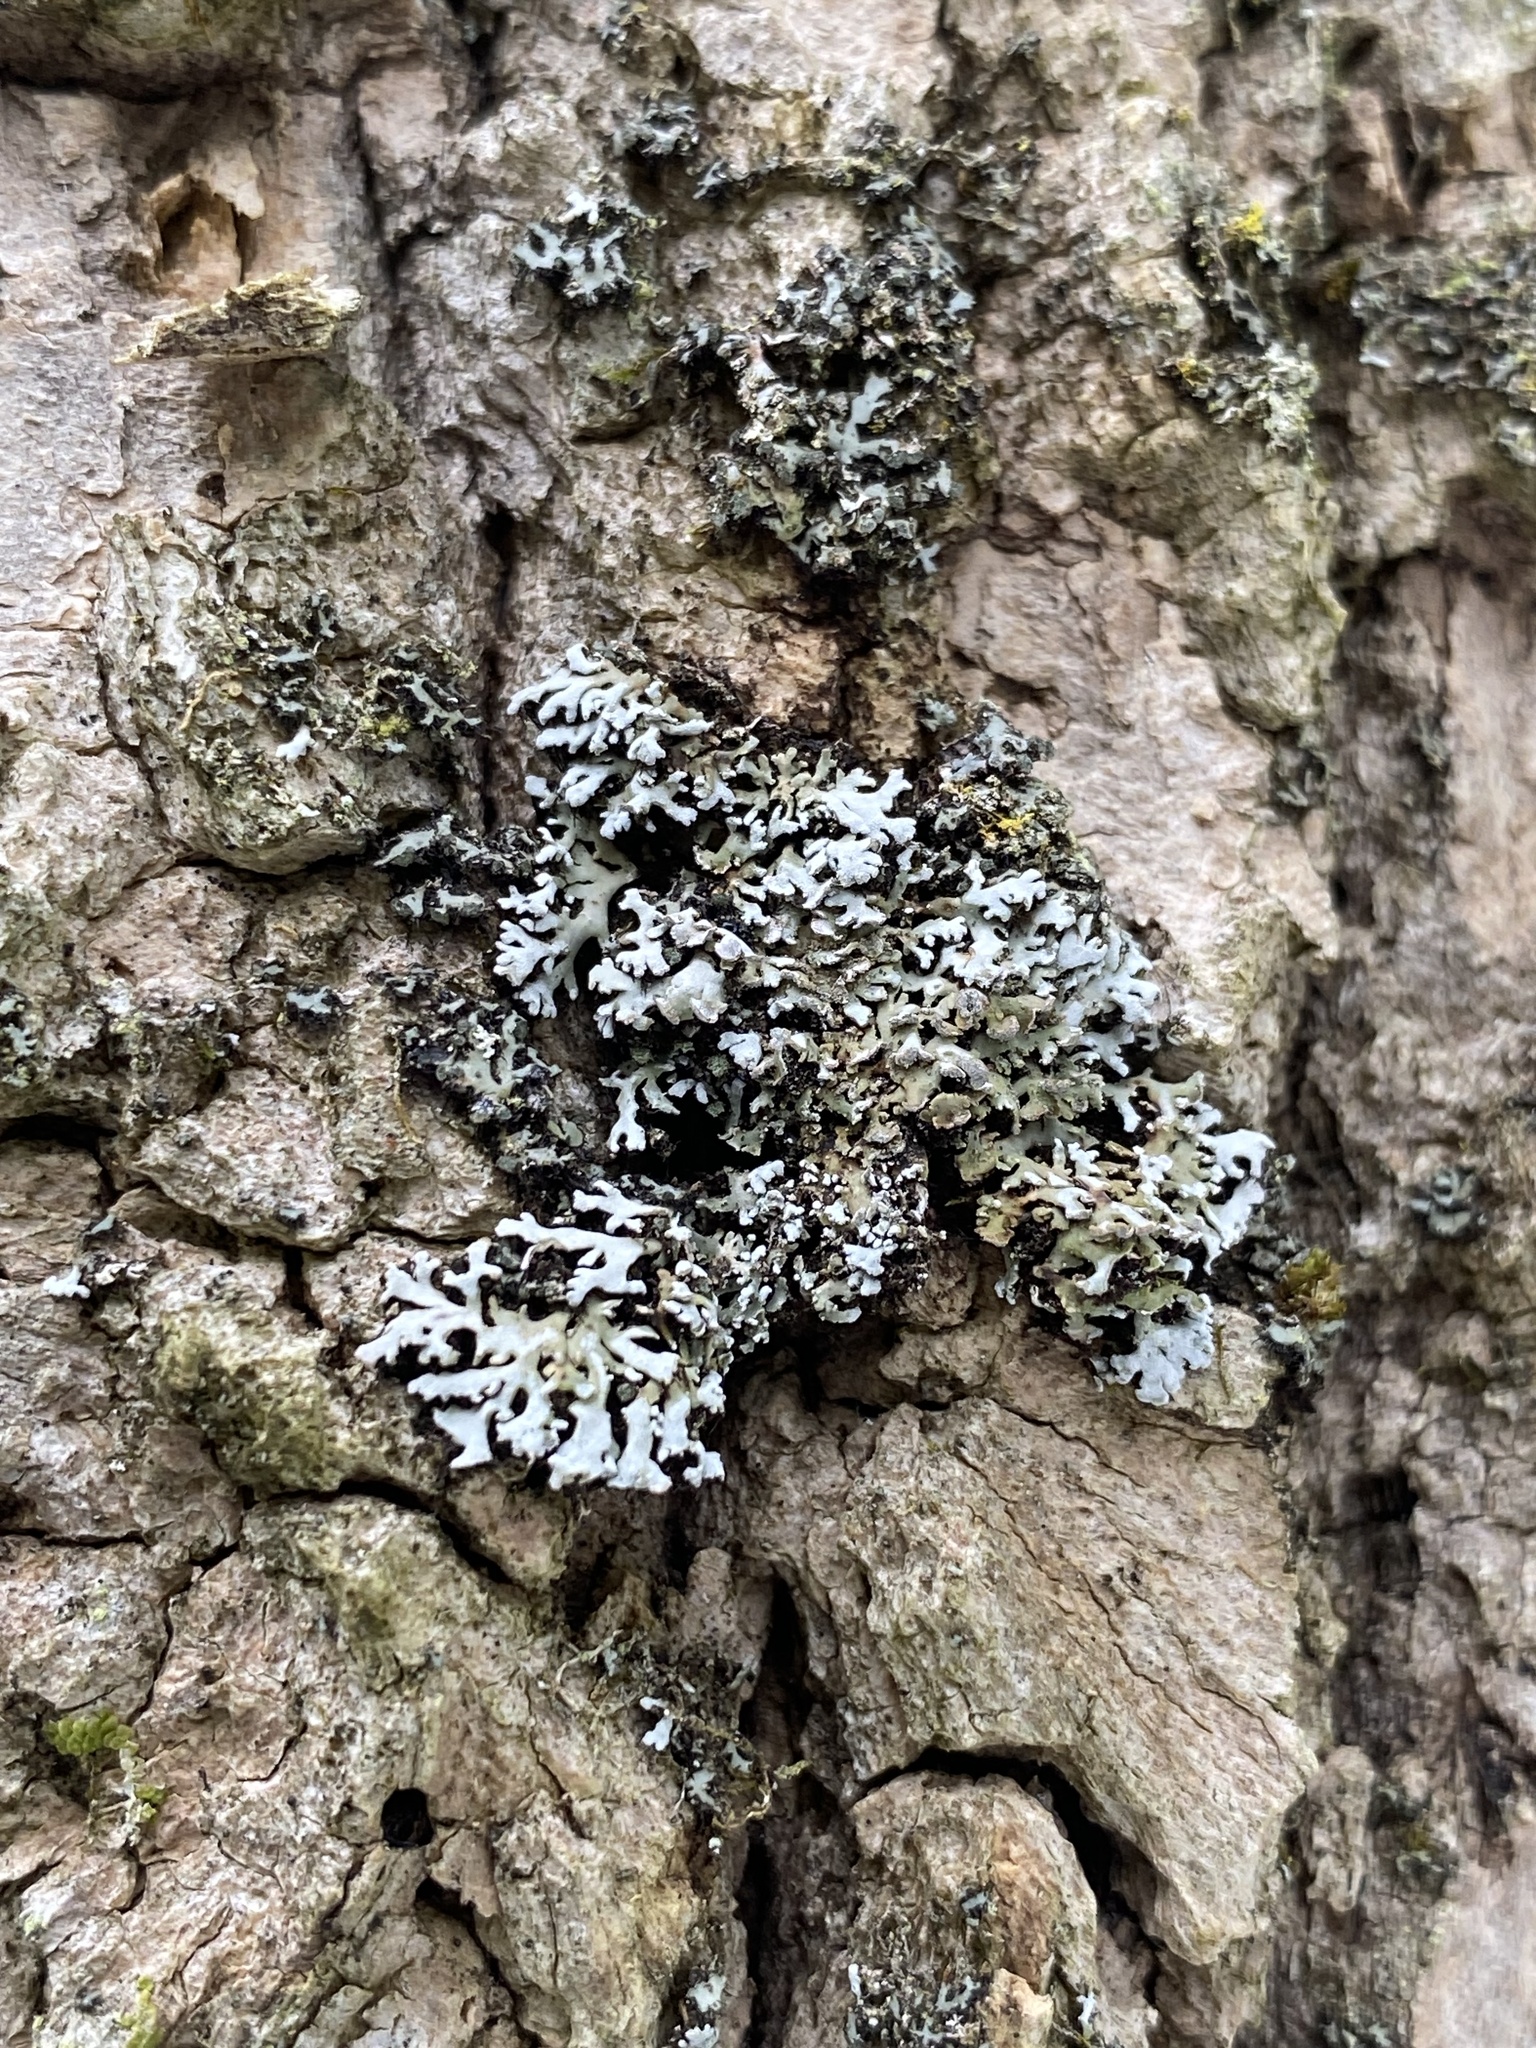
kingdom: Fungi
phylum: Ascomycota
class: Lecanoromycetes
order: Caliciales
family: Physciaceae
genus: Physconia
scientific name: Physconia perisidiosa
